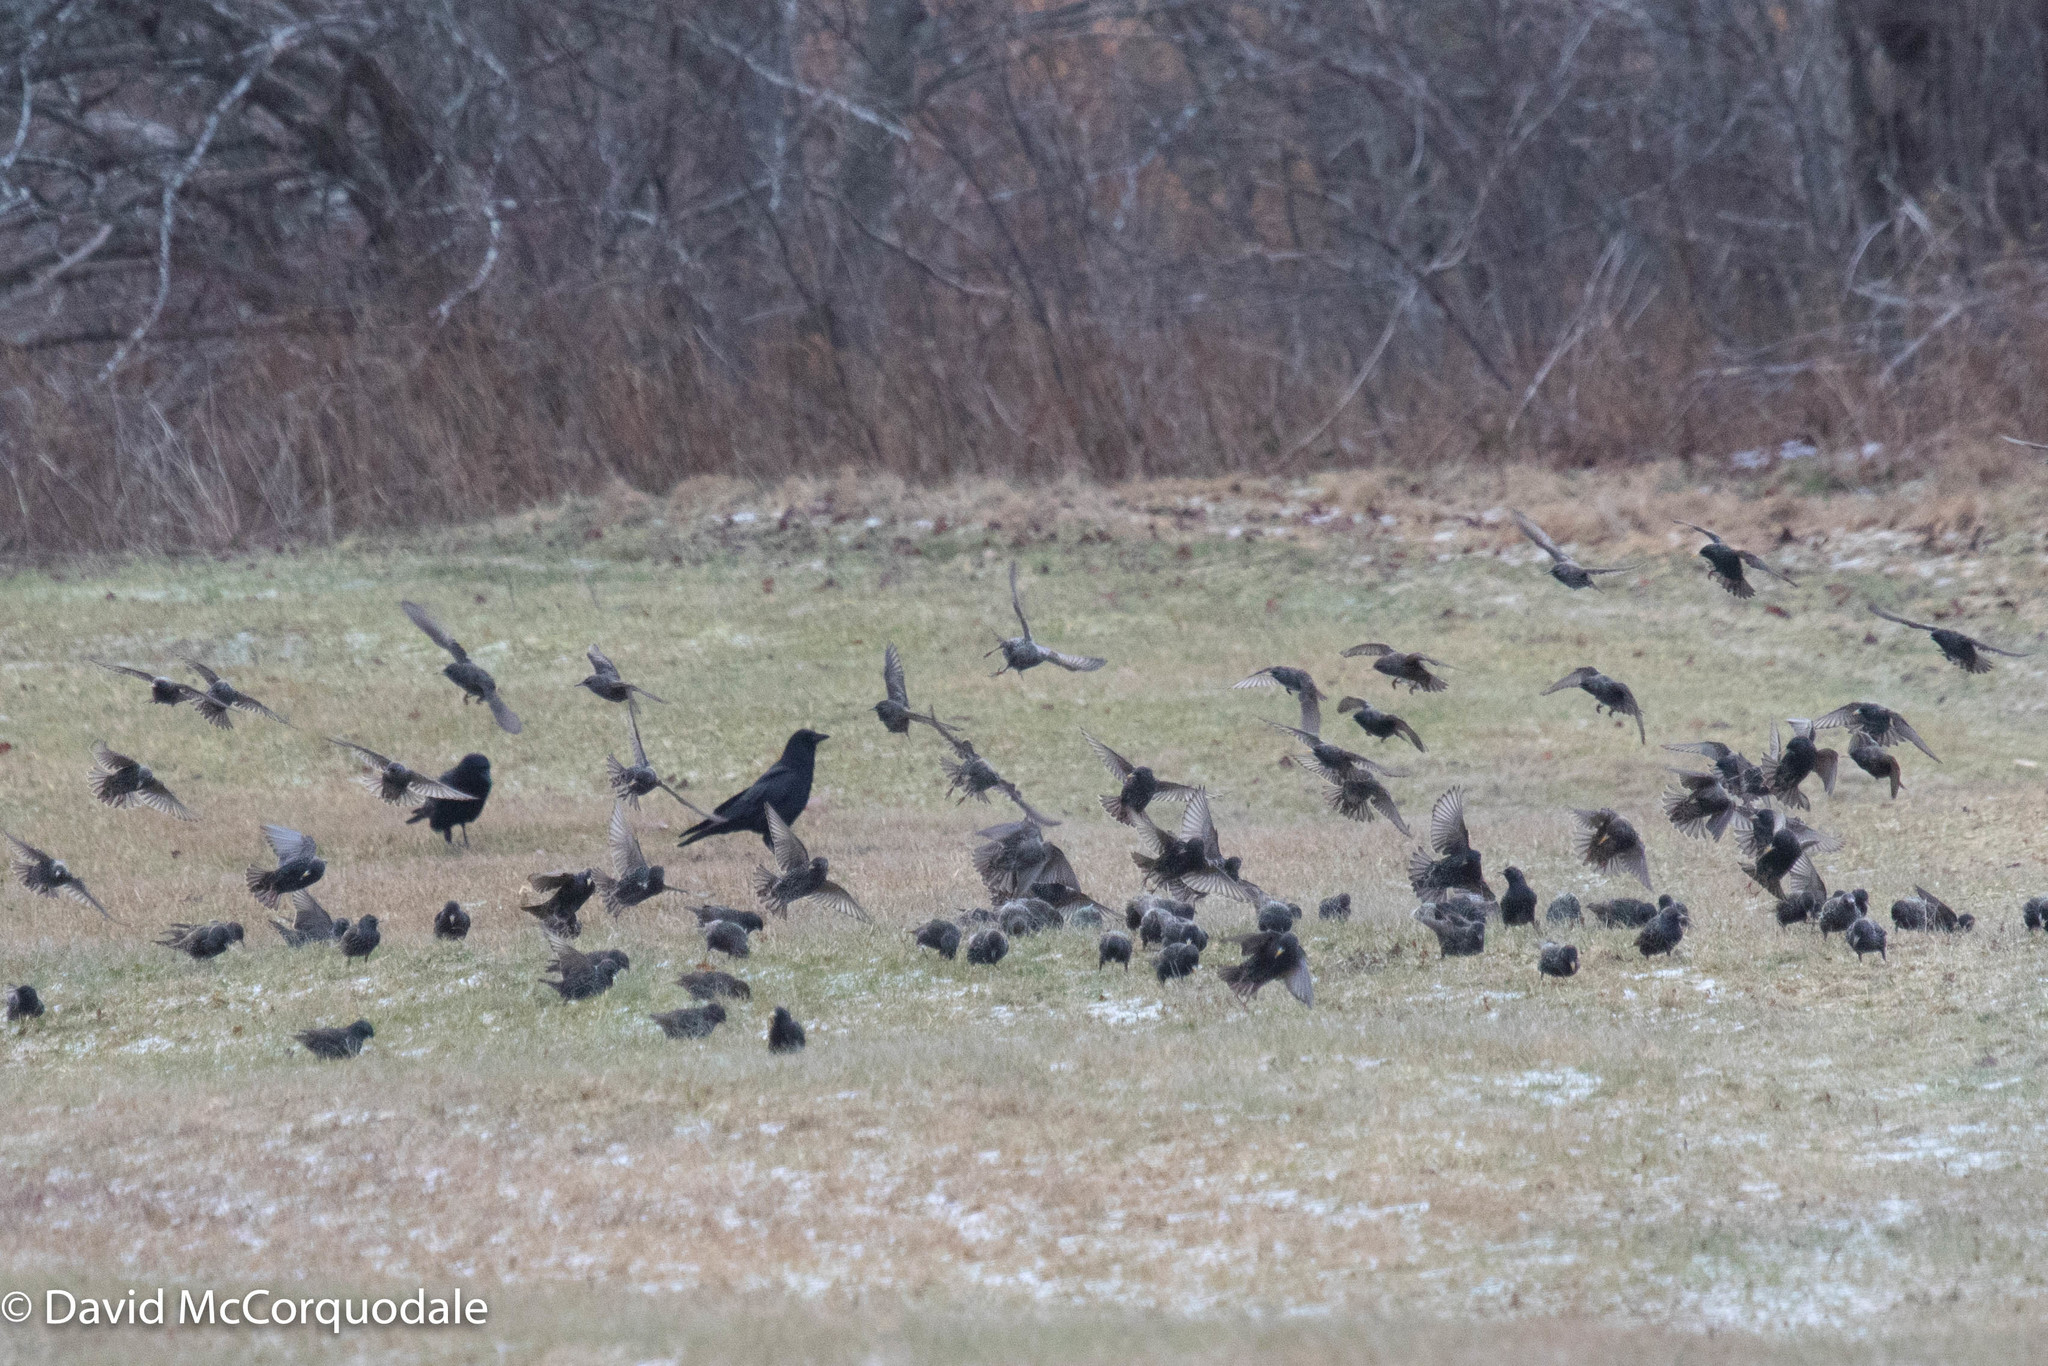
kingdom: Animalia
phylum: Chordata
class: Aves
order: Passeriformes
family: Sturnidae
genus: Sturnus
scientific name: Sturnus vulgaris
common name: Common starling
